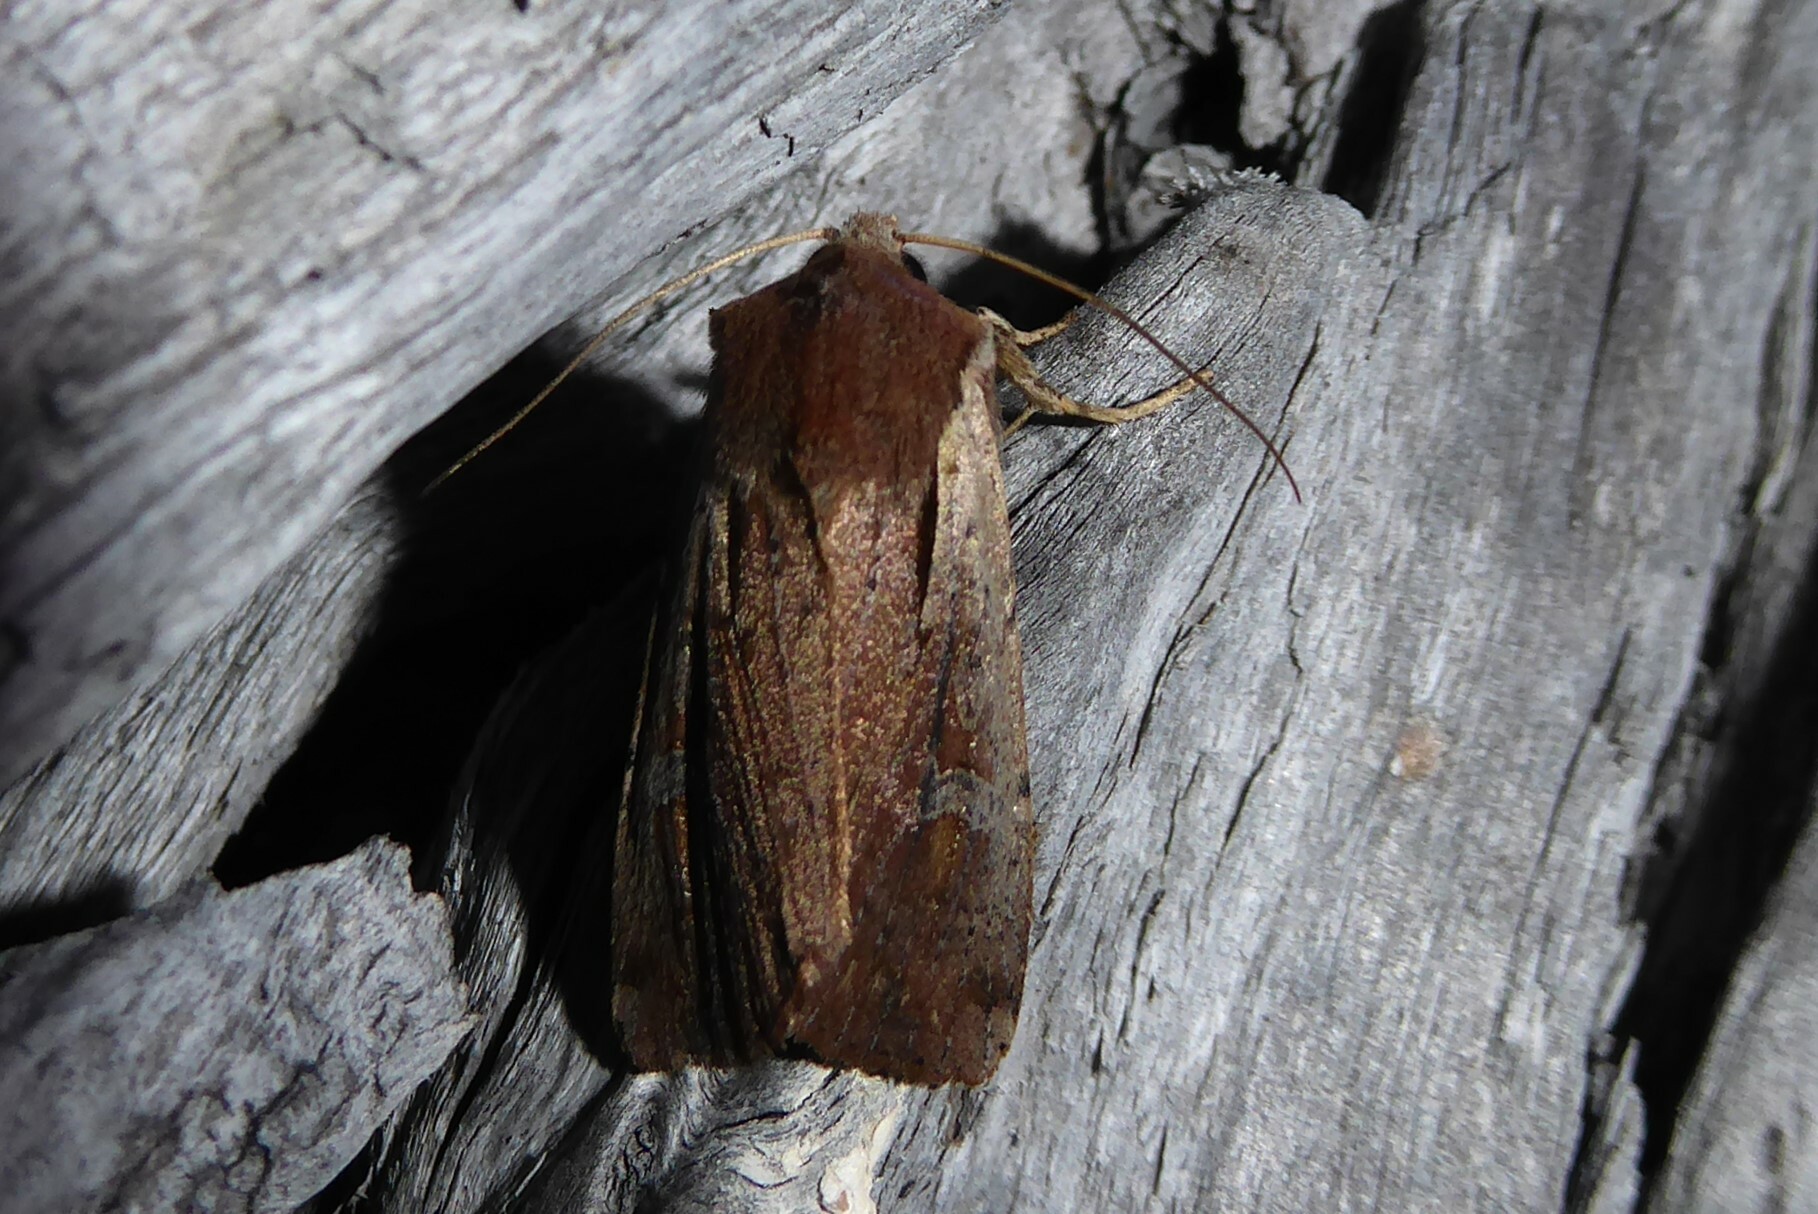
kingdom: Animalia
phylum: Arthropoda
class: Insecta
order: Lepidoptera
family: Noctuidae
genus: Ichneutica
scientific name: Ichneutica atristriga
